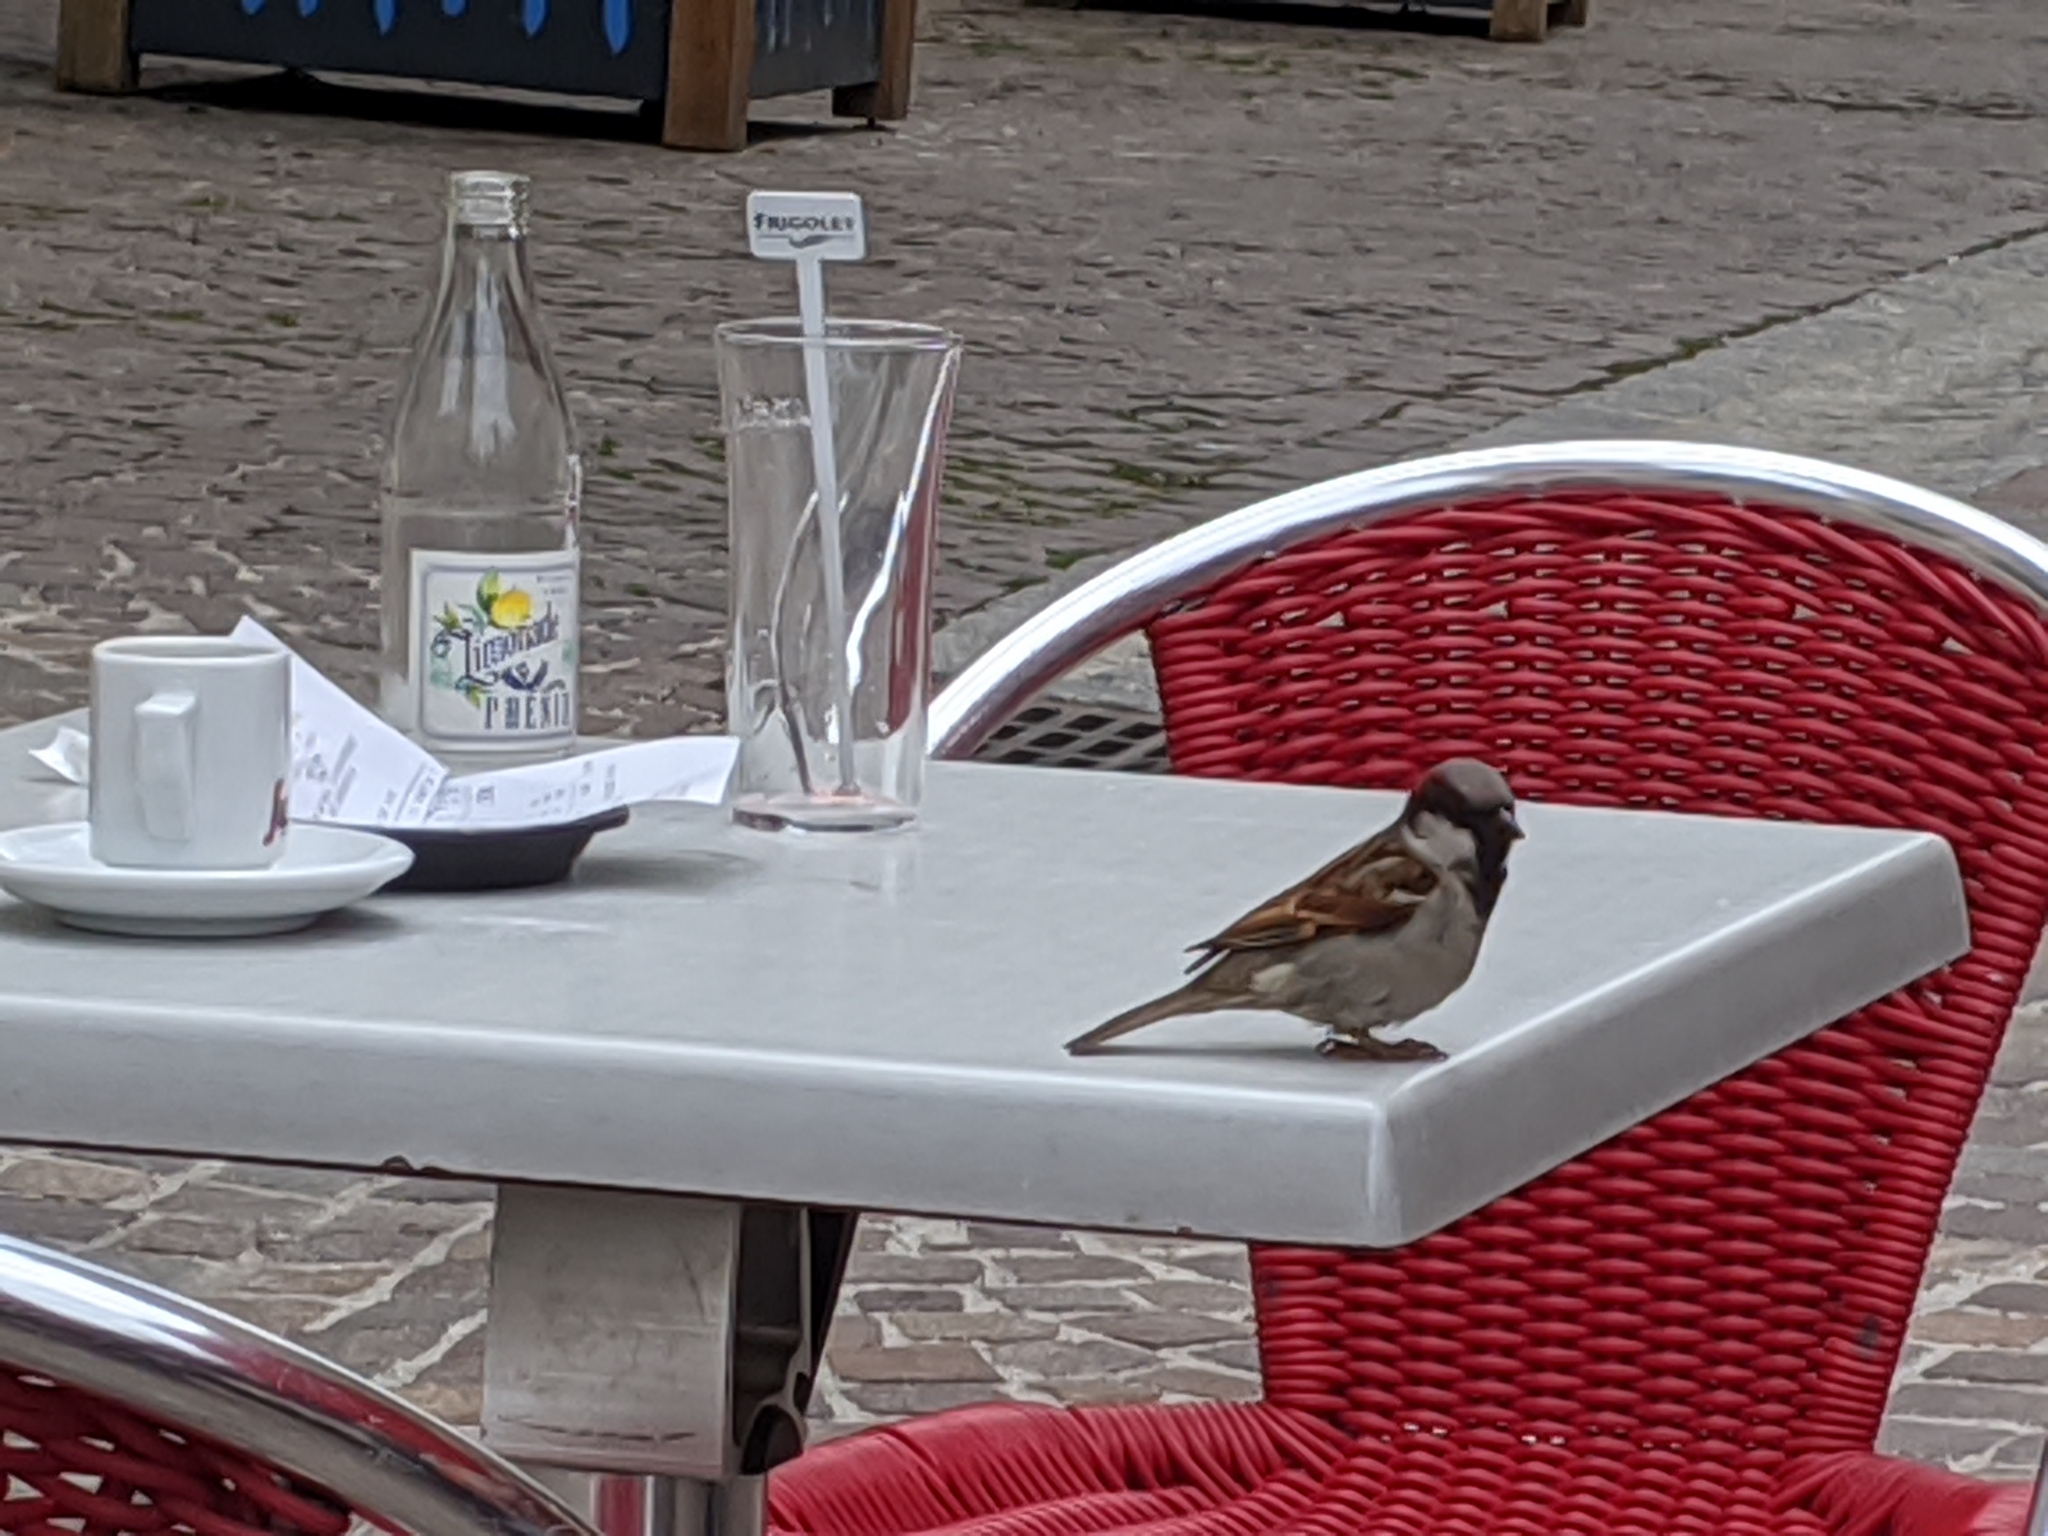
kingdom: Animalia
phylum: Chordata
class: Aves
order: Passeriformes
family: Passeridae
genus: Passer
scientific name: Passer domesticus
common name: House sparrow
